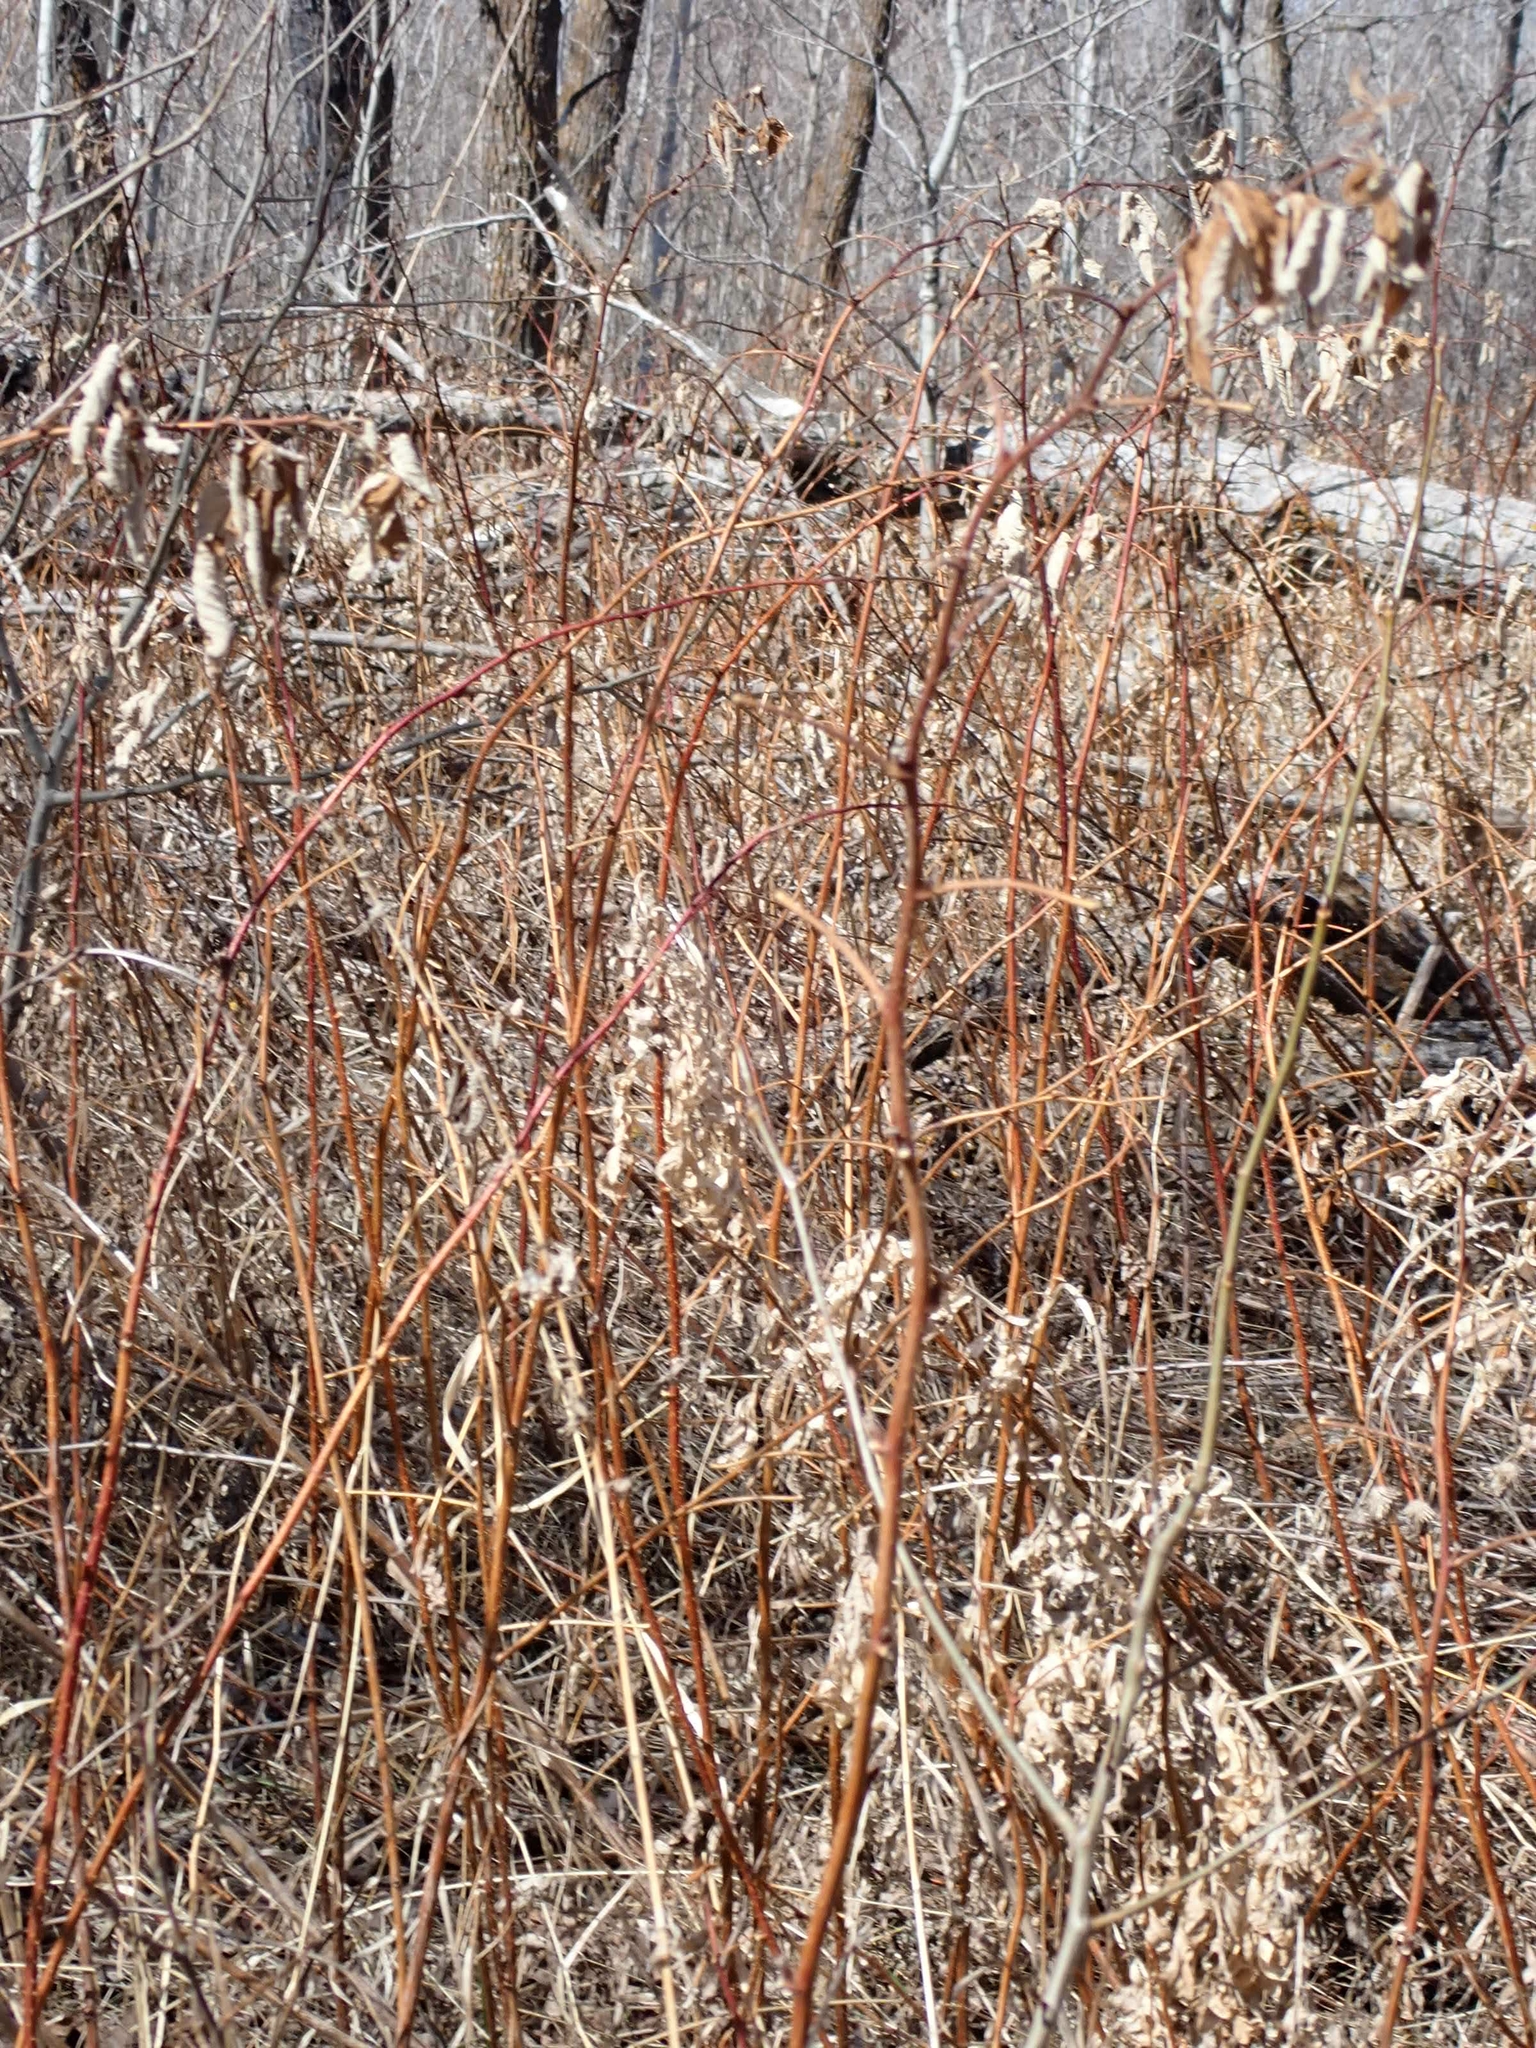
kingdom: Plantae
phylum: Tracheophyta
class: Magnoliopsida
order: Rosales
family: Rosaceae
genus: Rubus
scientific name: Rubus idaeus
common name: Raspberry
